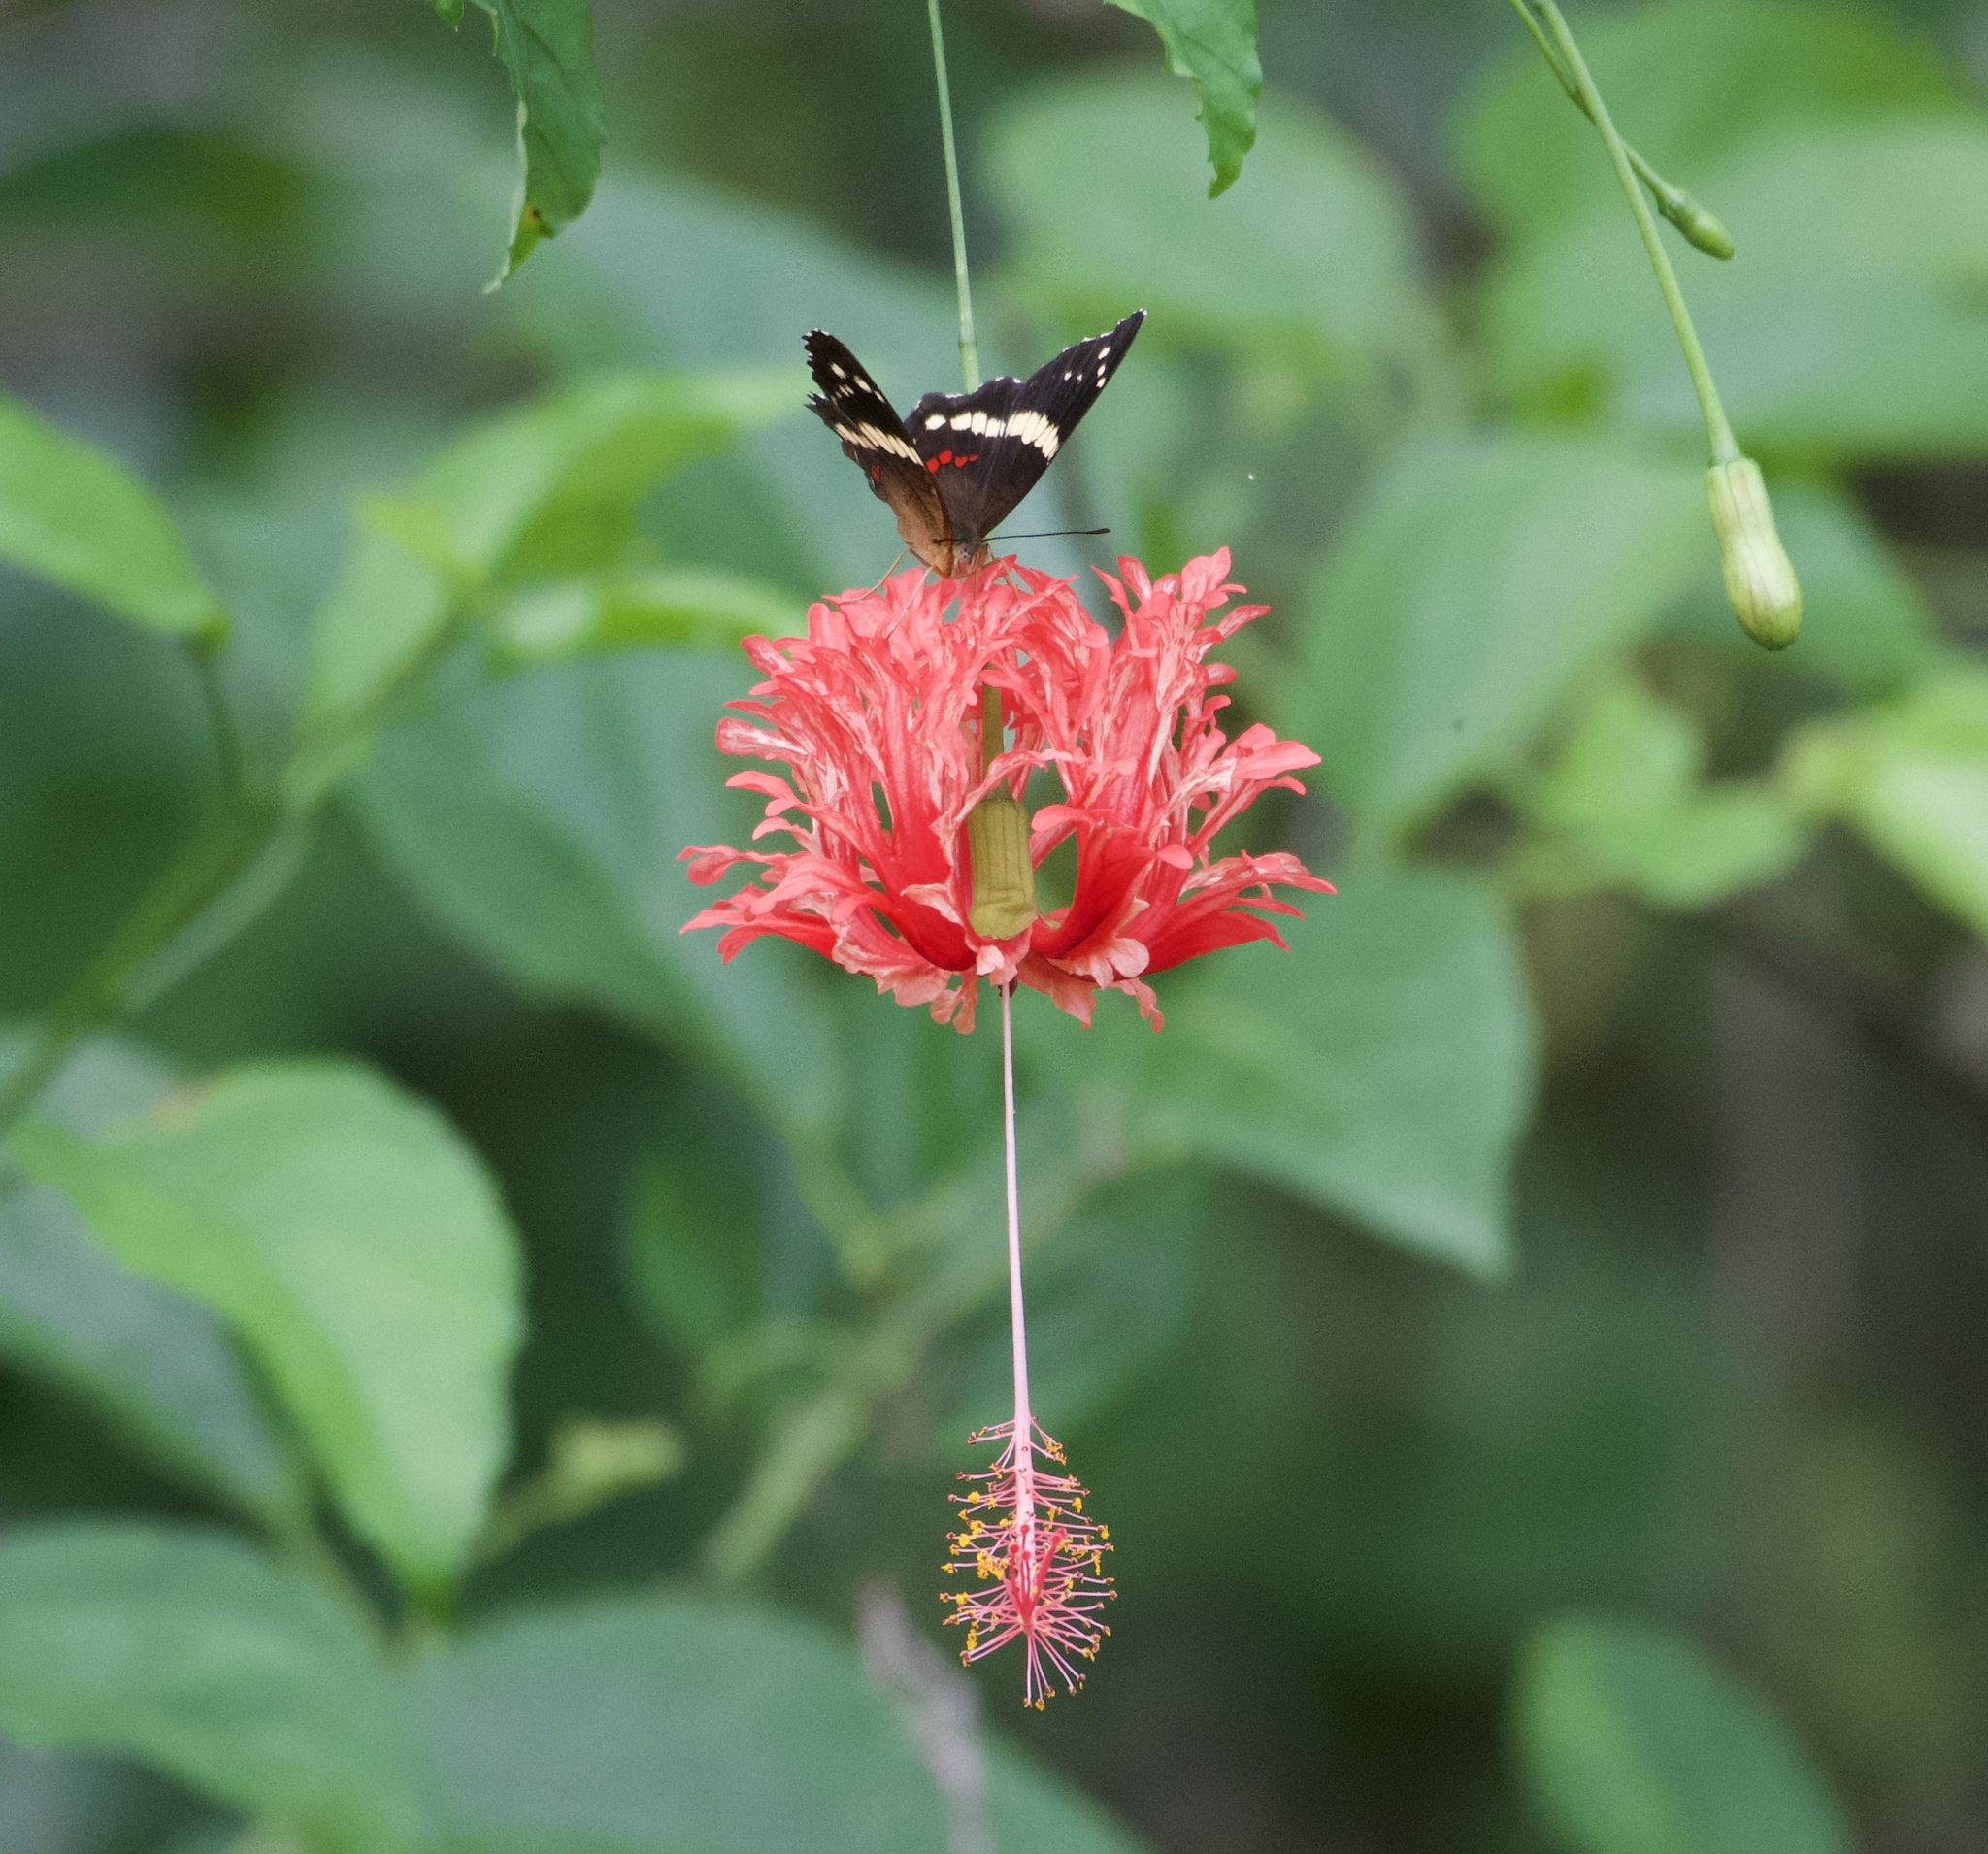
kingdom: Animalia
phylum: Arthropoda
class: Insecta
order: Lepidoptera
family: Nymphalidae
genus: Anartia
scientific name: Anartia fatima
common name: Banded peacock
